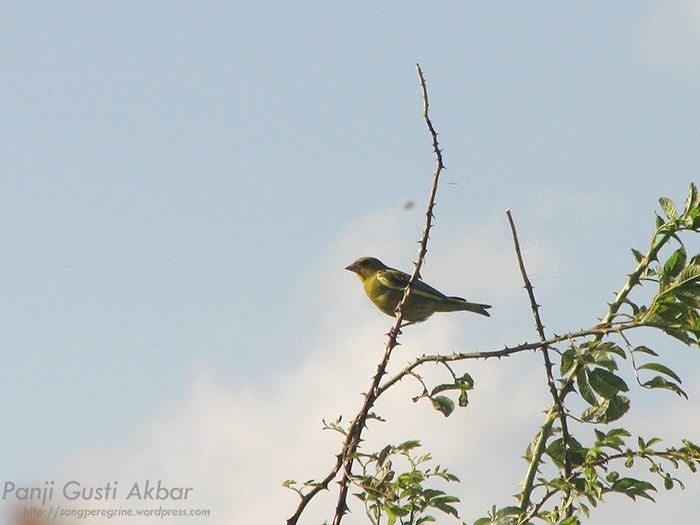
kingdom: Plantae
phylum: Tracheophyta
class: Liliopsida
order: Poales
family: Poaceae
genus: Chloris
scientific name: Chloris chloris
